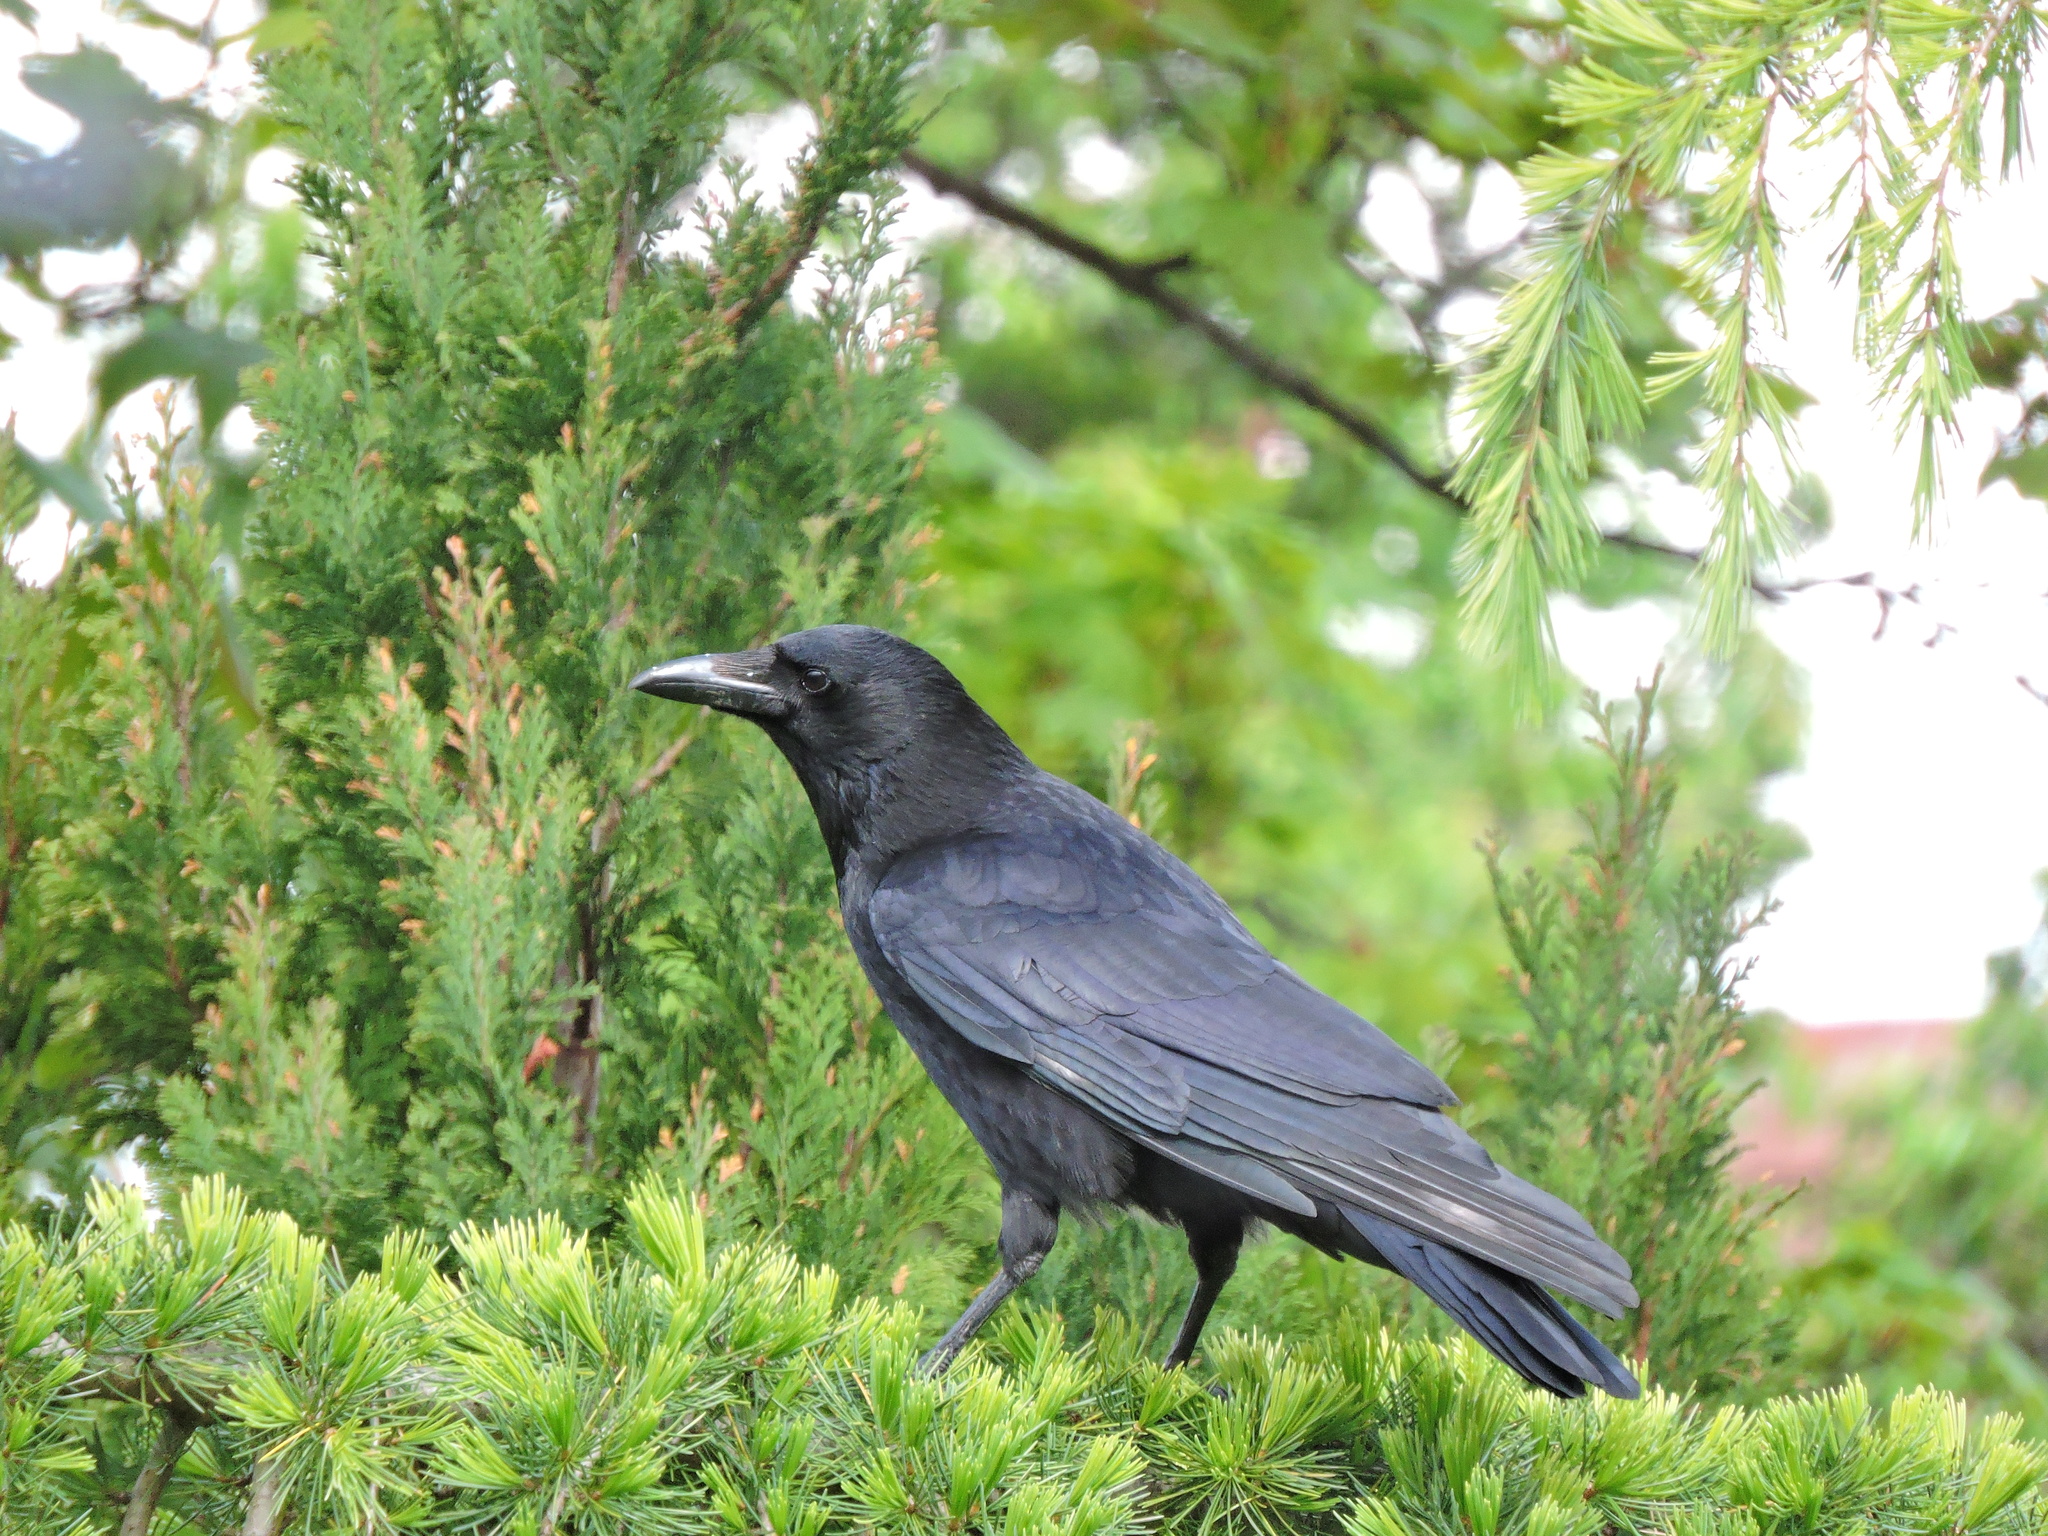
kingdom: Animalia
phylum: Chordata
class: Aves
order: Passeriformes
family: Corvidae
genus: Corvus
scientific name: Corvus corone
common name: Carrion crow
